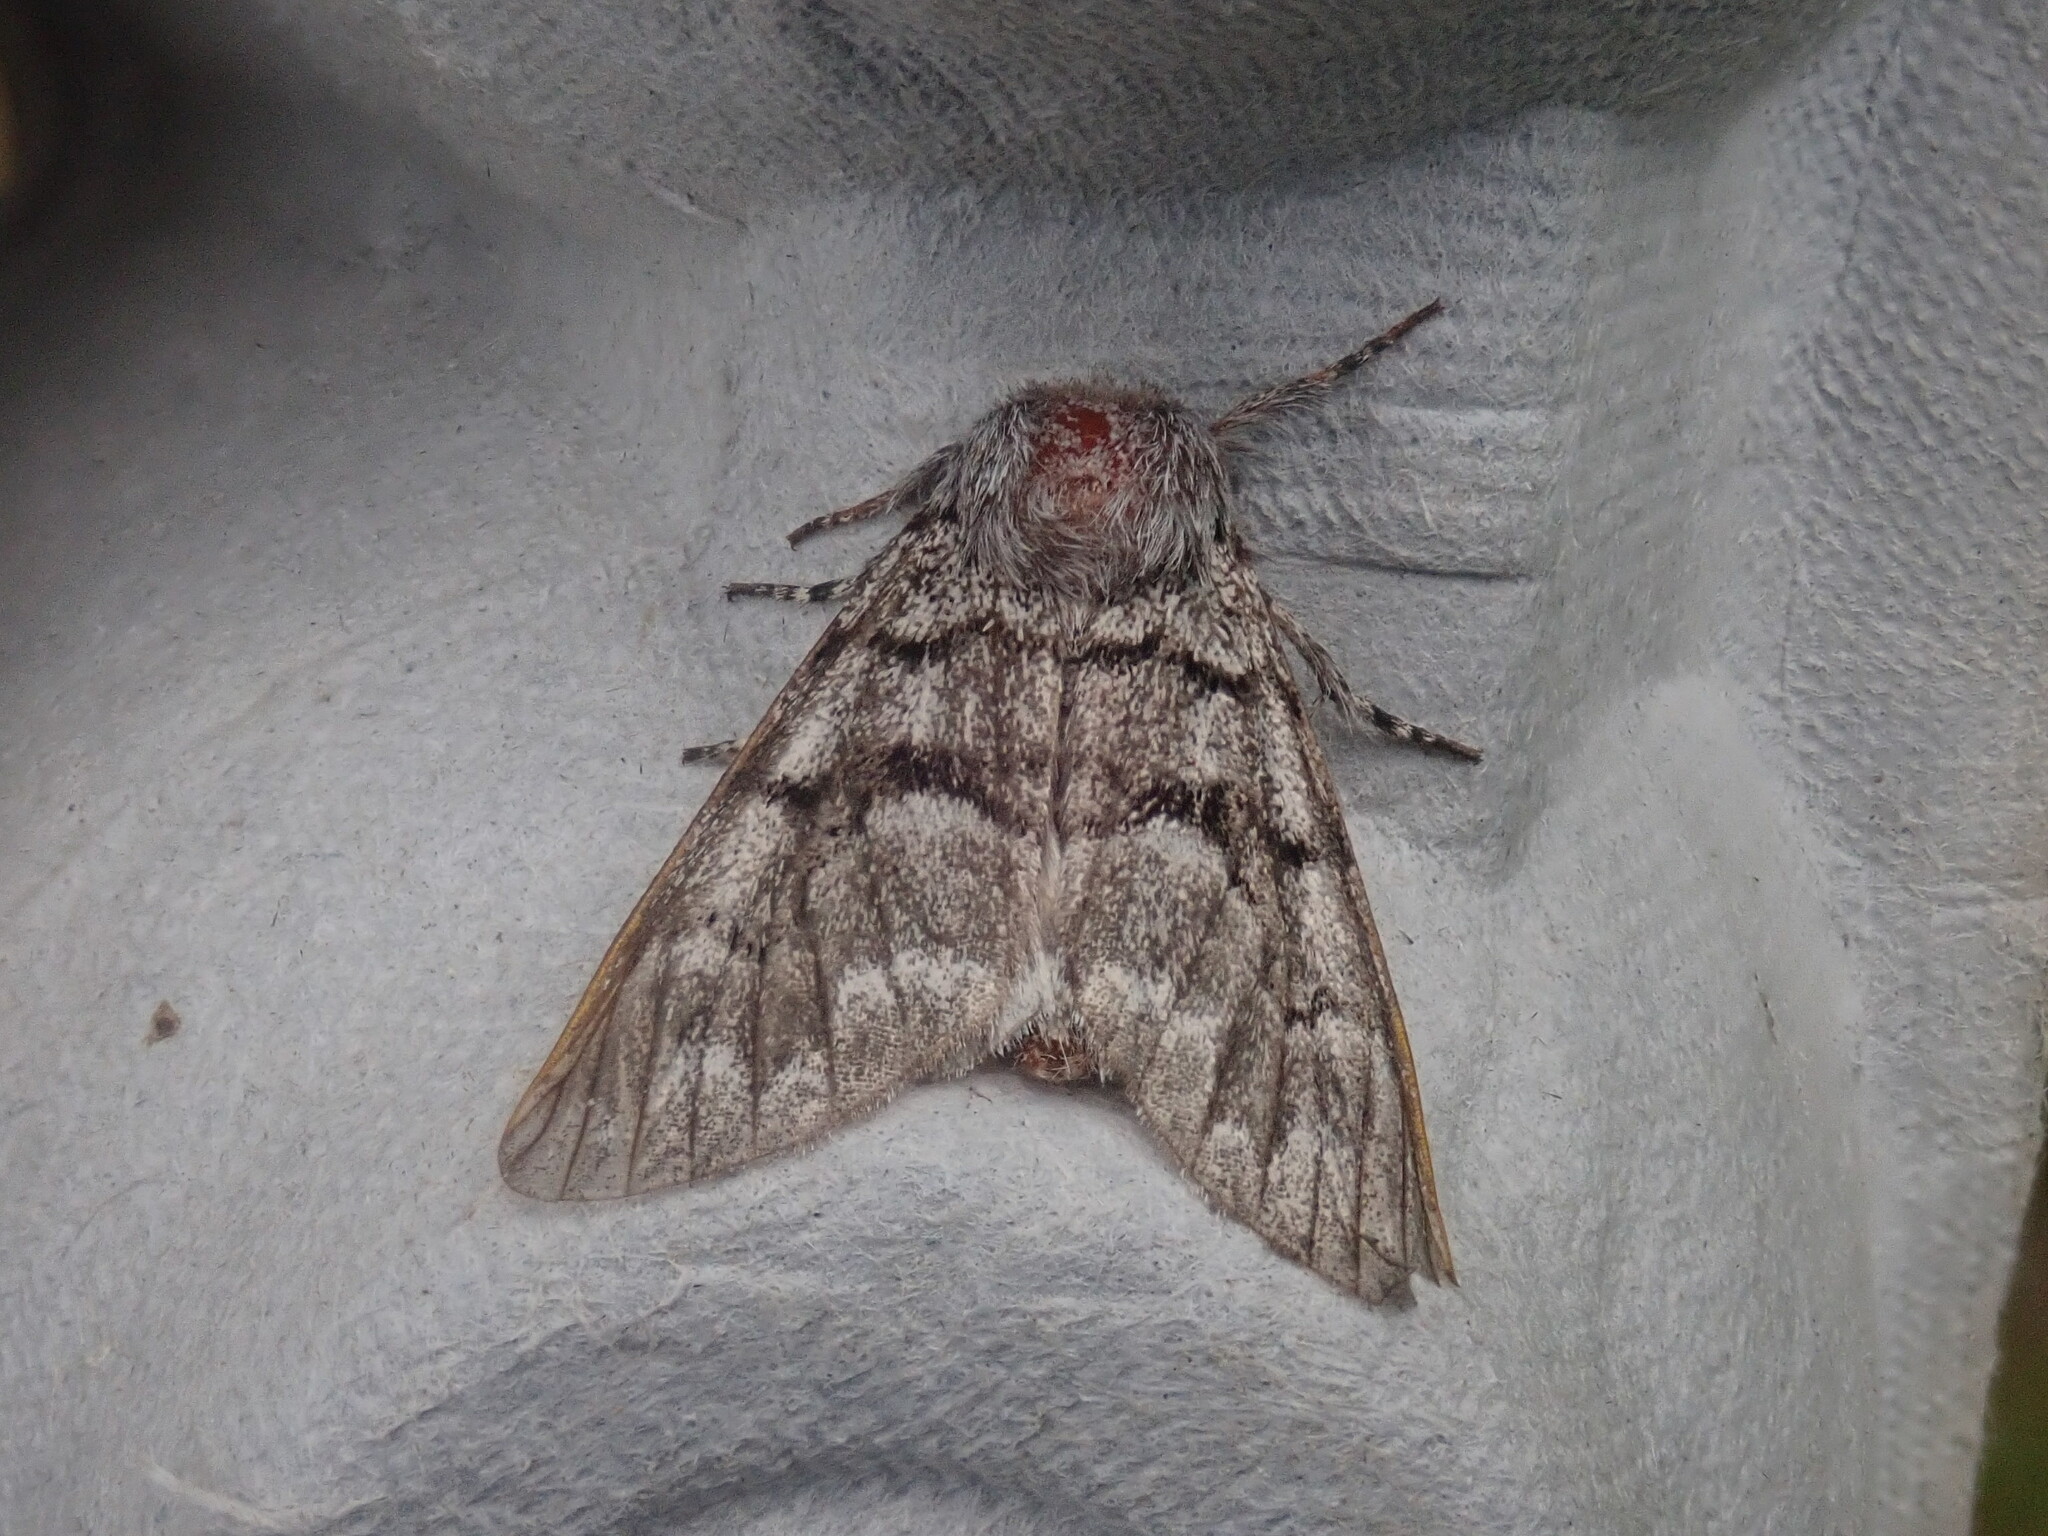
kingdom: Animalia
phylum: Arthropoda
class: Insecta
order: Lepidoptera
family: Noctuidae
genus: Panthea
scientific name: Panthea furcilla
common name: Eastern panthea moth
